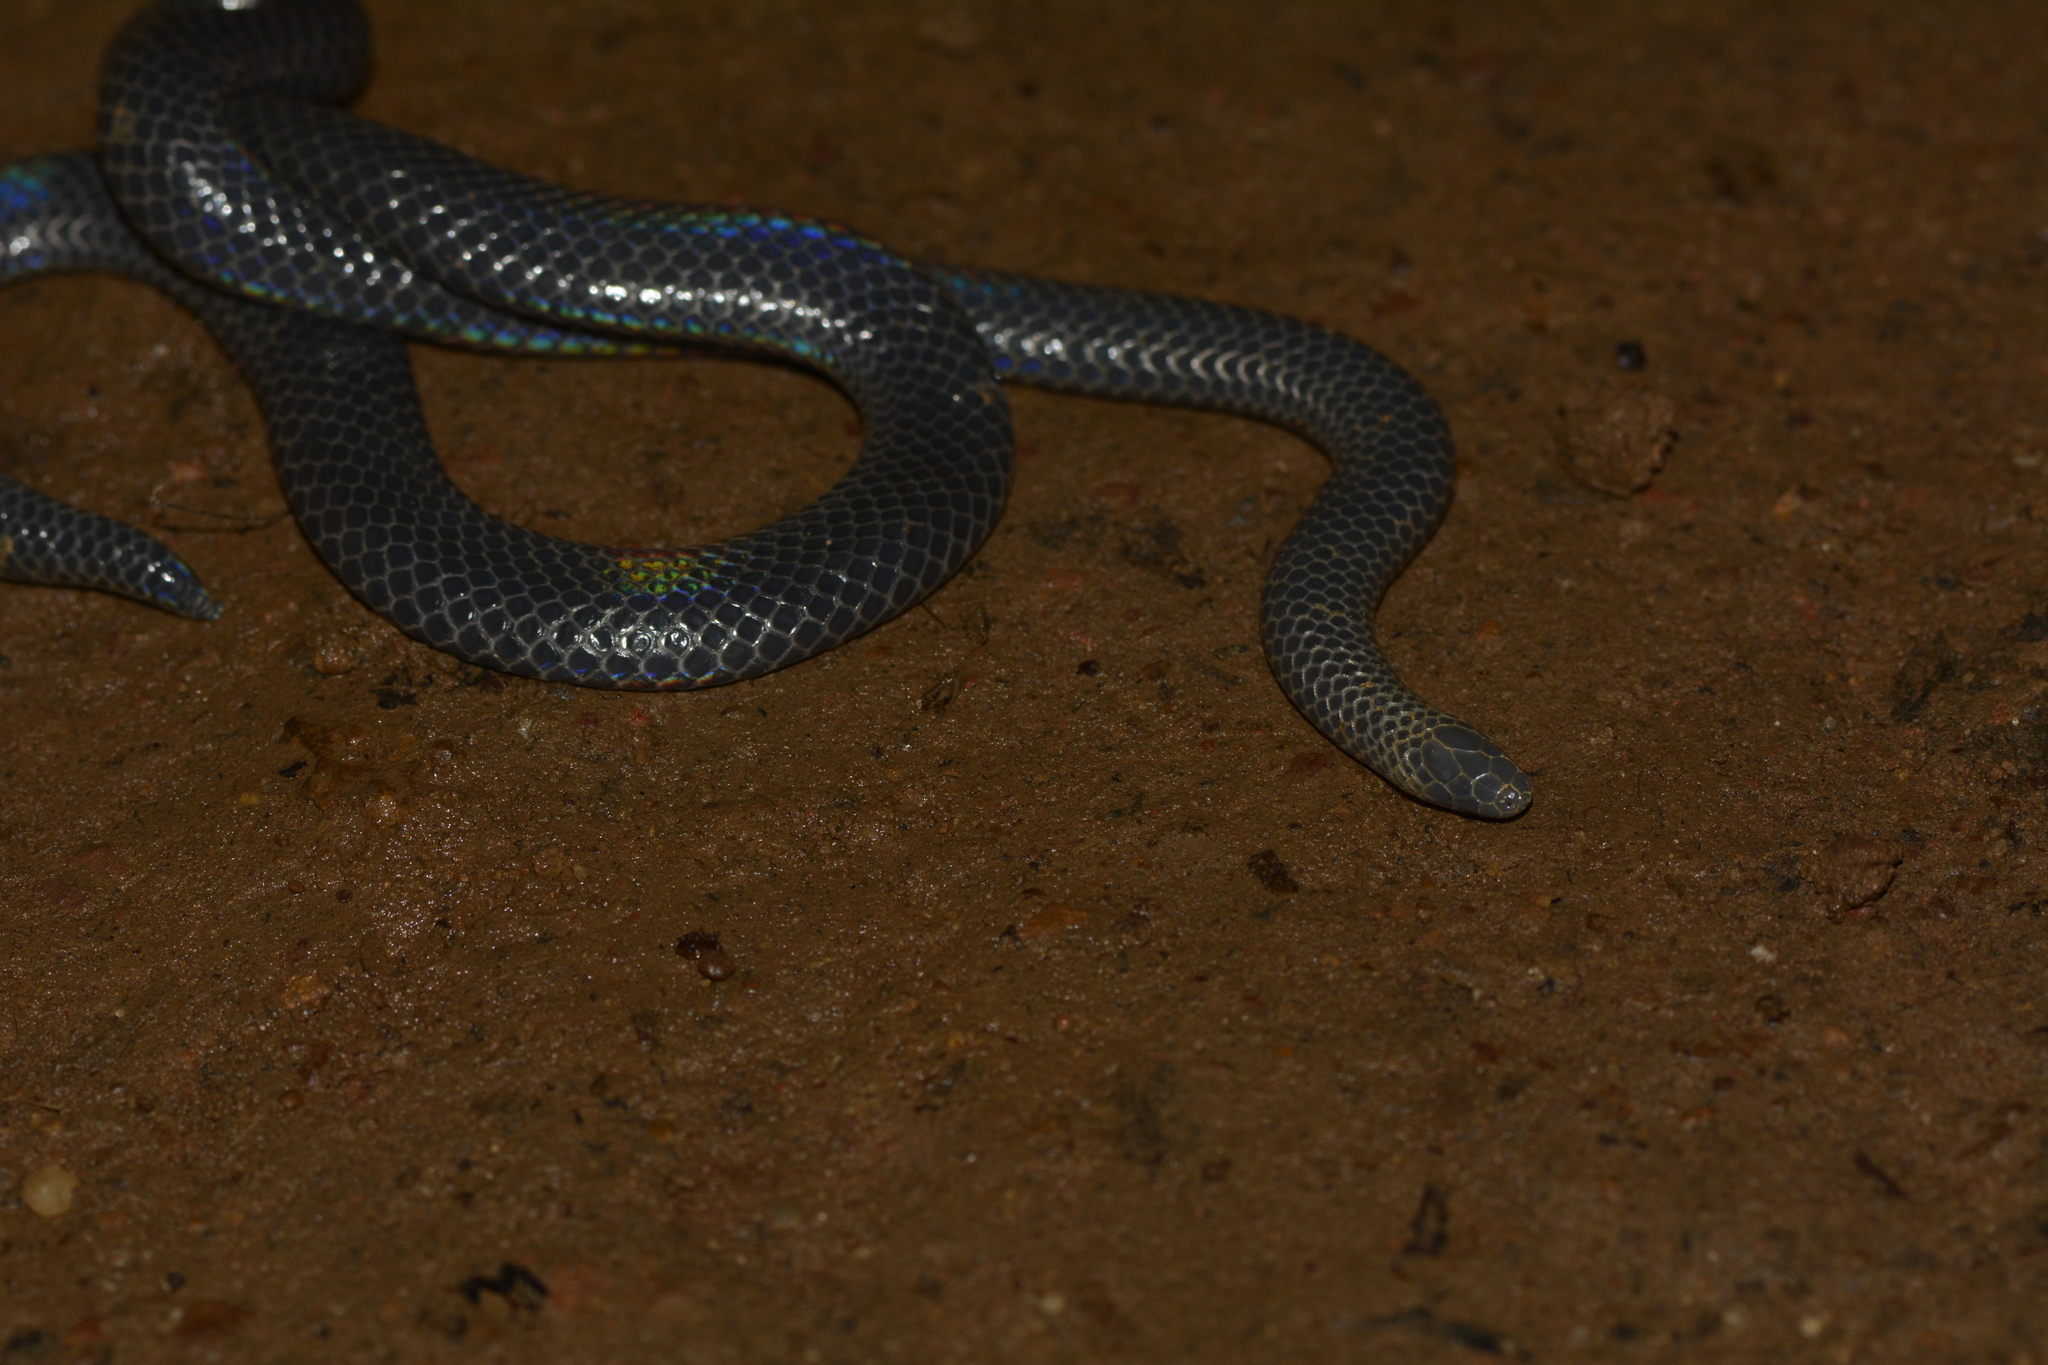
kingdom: Animalia
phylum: Chordata
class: Squamata
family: Uropeltidae
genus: Melanophidium
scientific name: Melanophidium wynaudense
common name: Indian black earth snake
